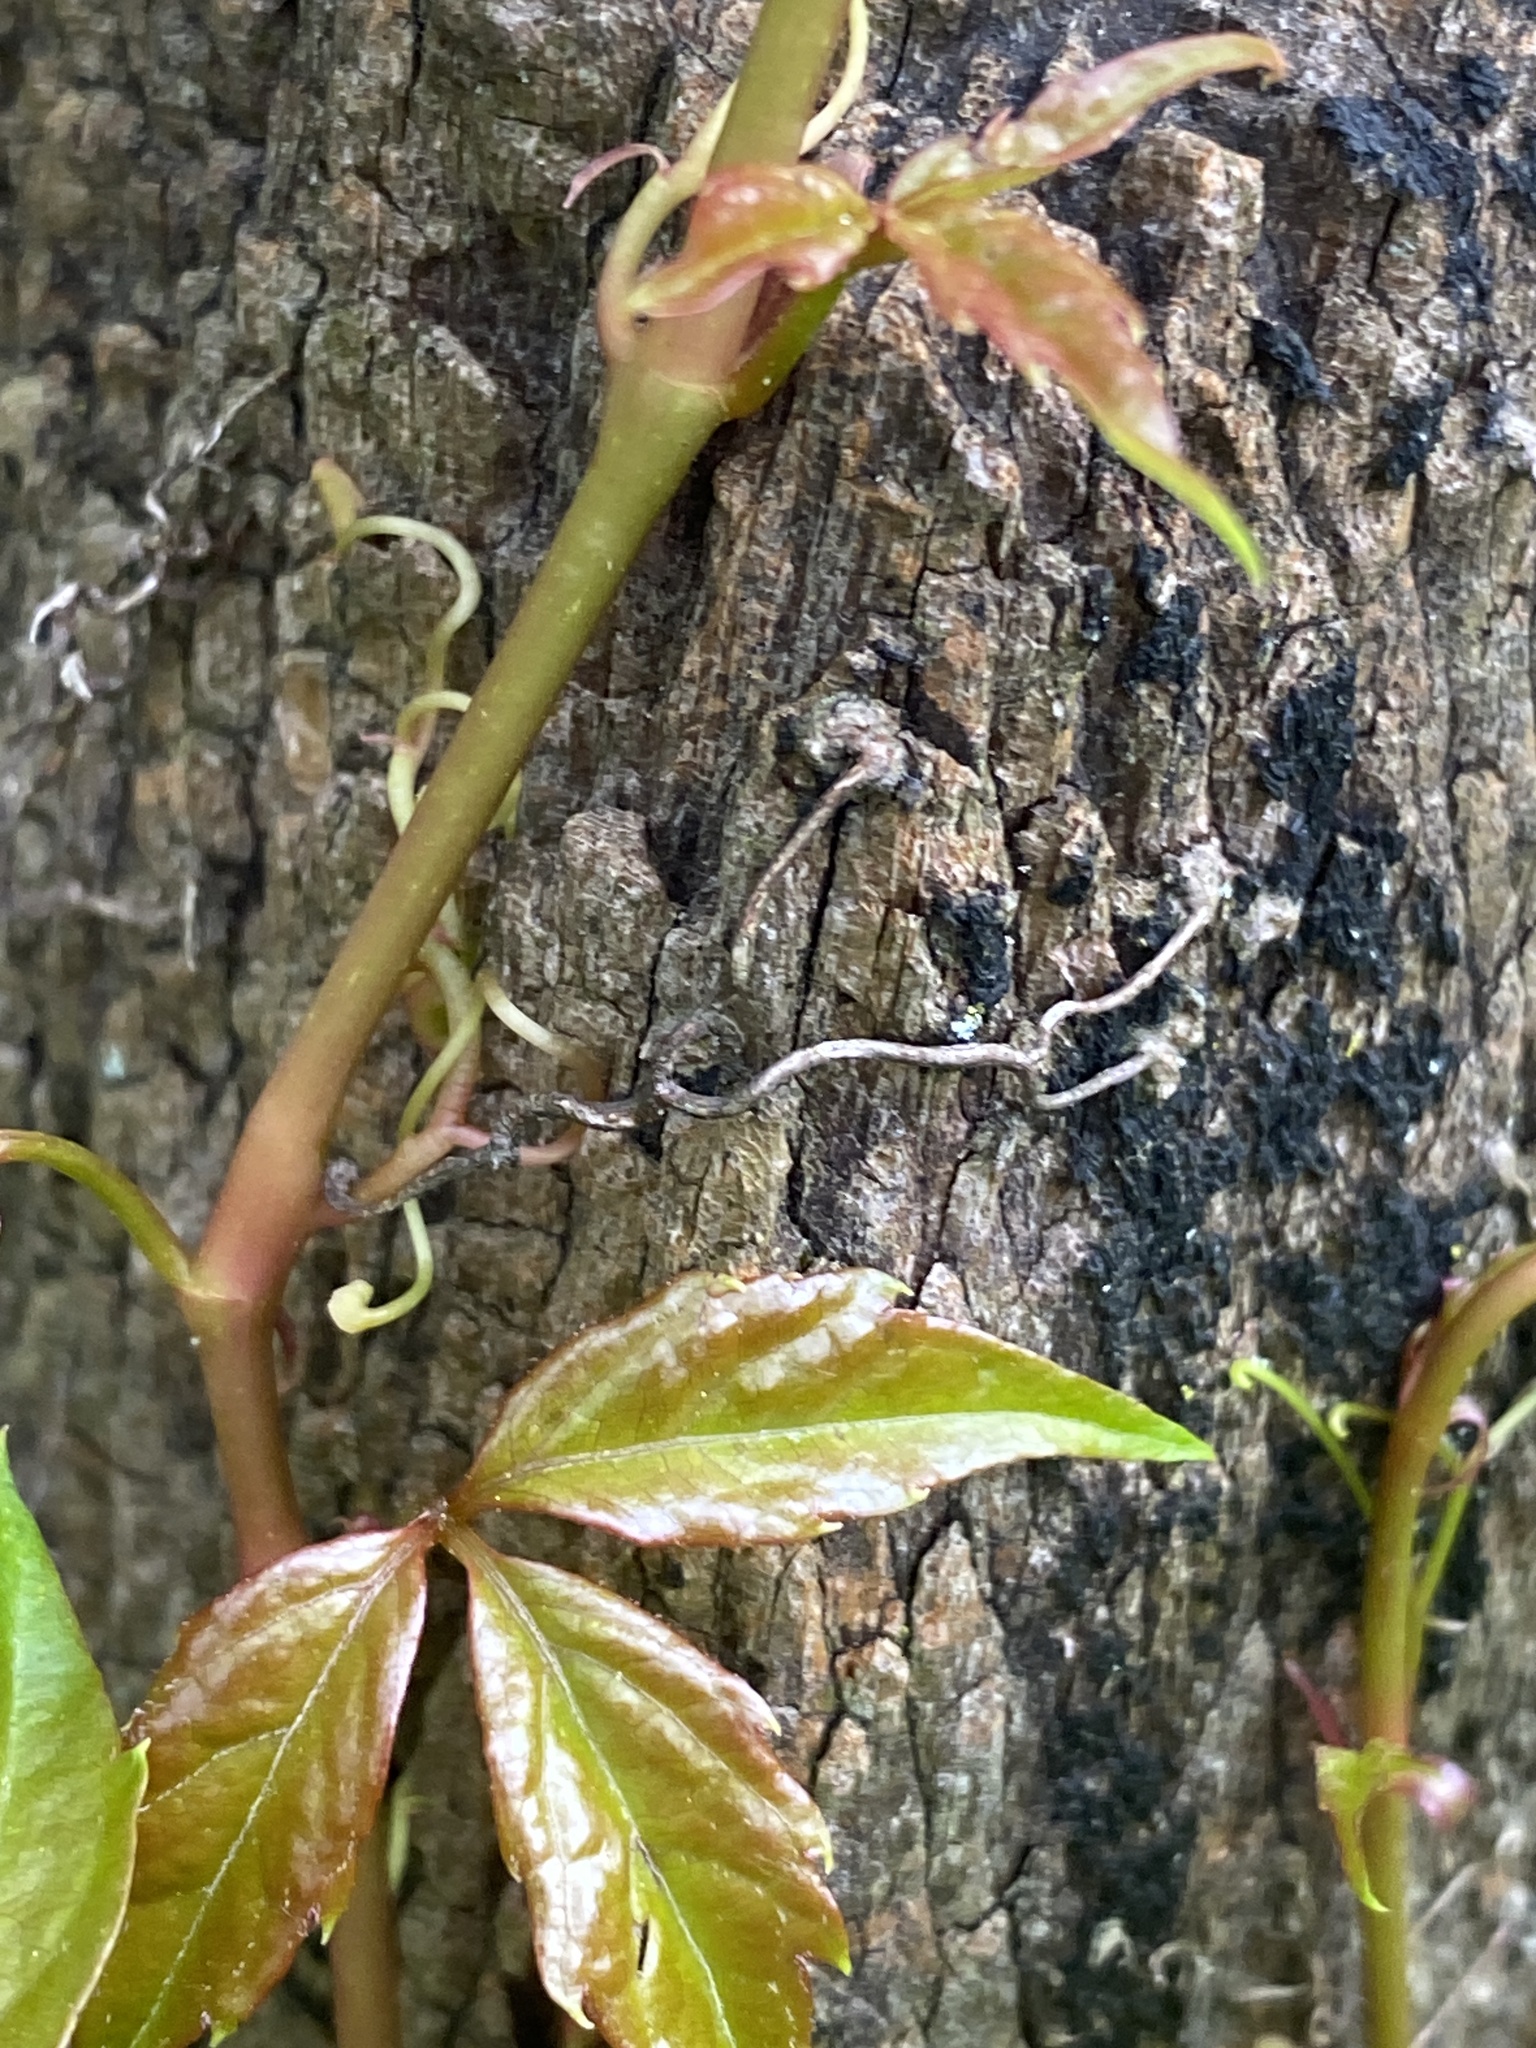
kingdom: Plantae
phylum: Tracheophyta
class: Magnoliopsida
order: Vitales
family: Vitaceae
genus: Parthenocissus
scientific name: Parthenocissus quinquefolia
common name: Virginia-creeper
